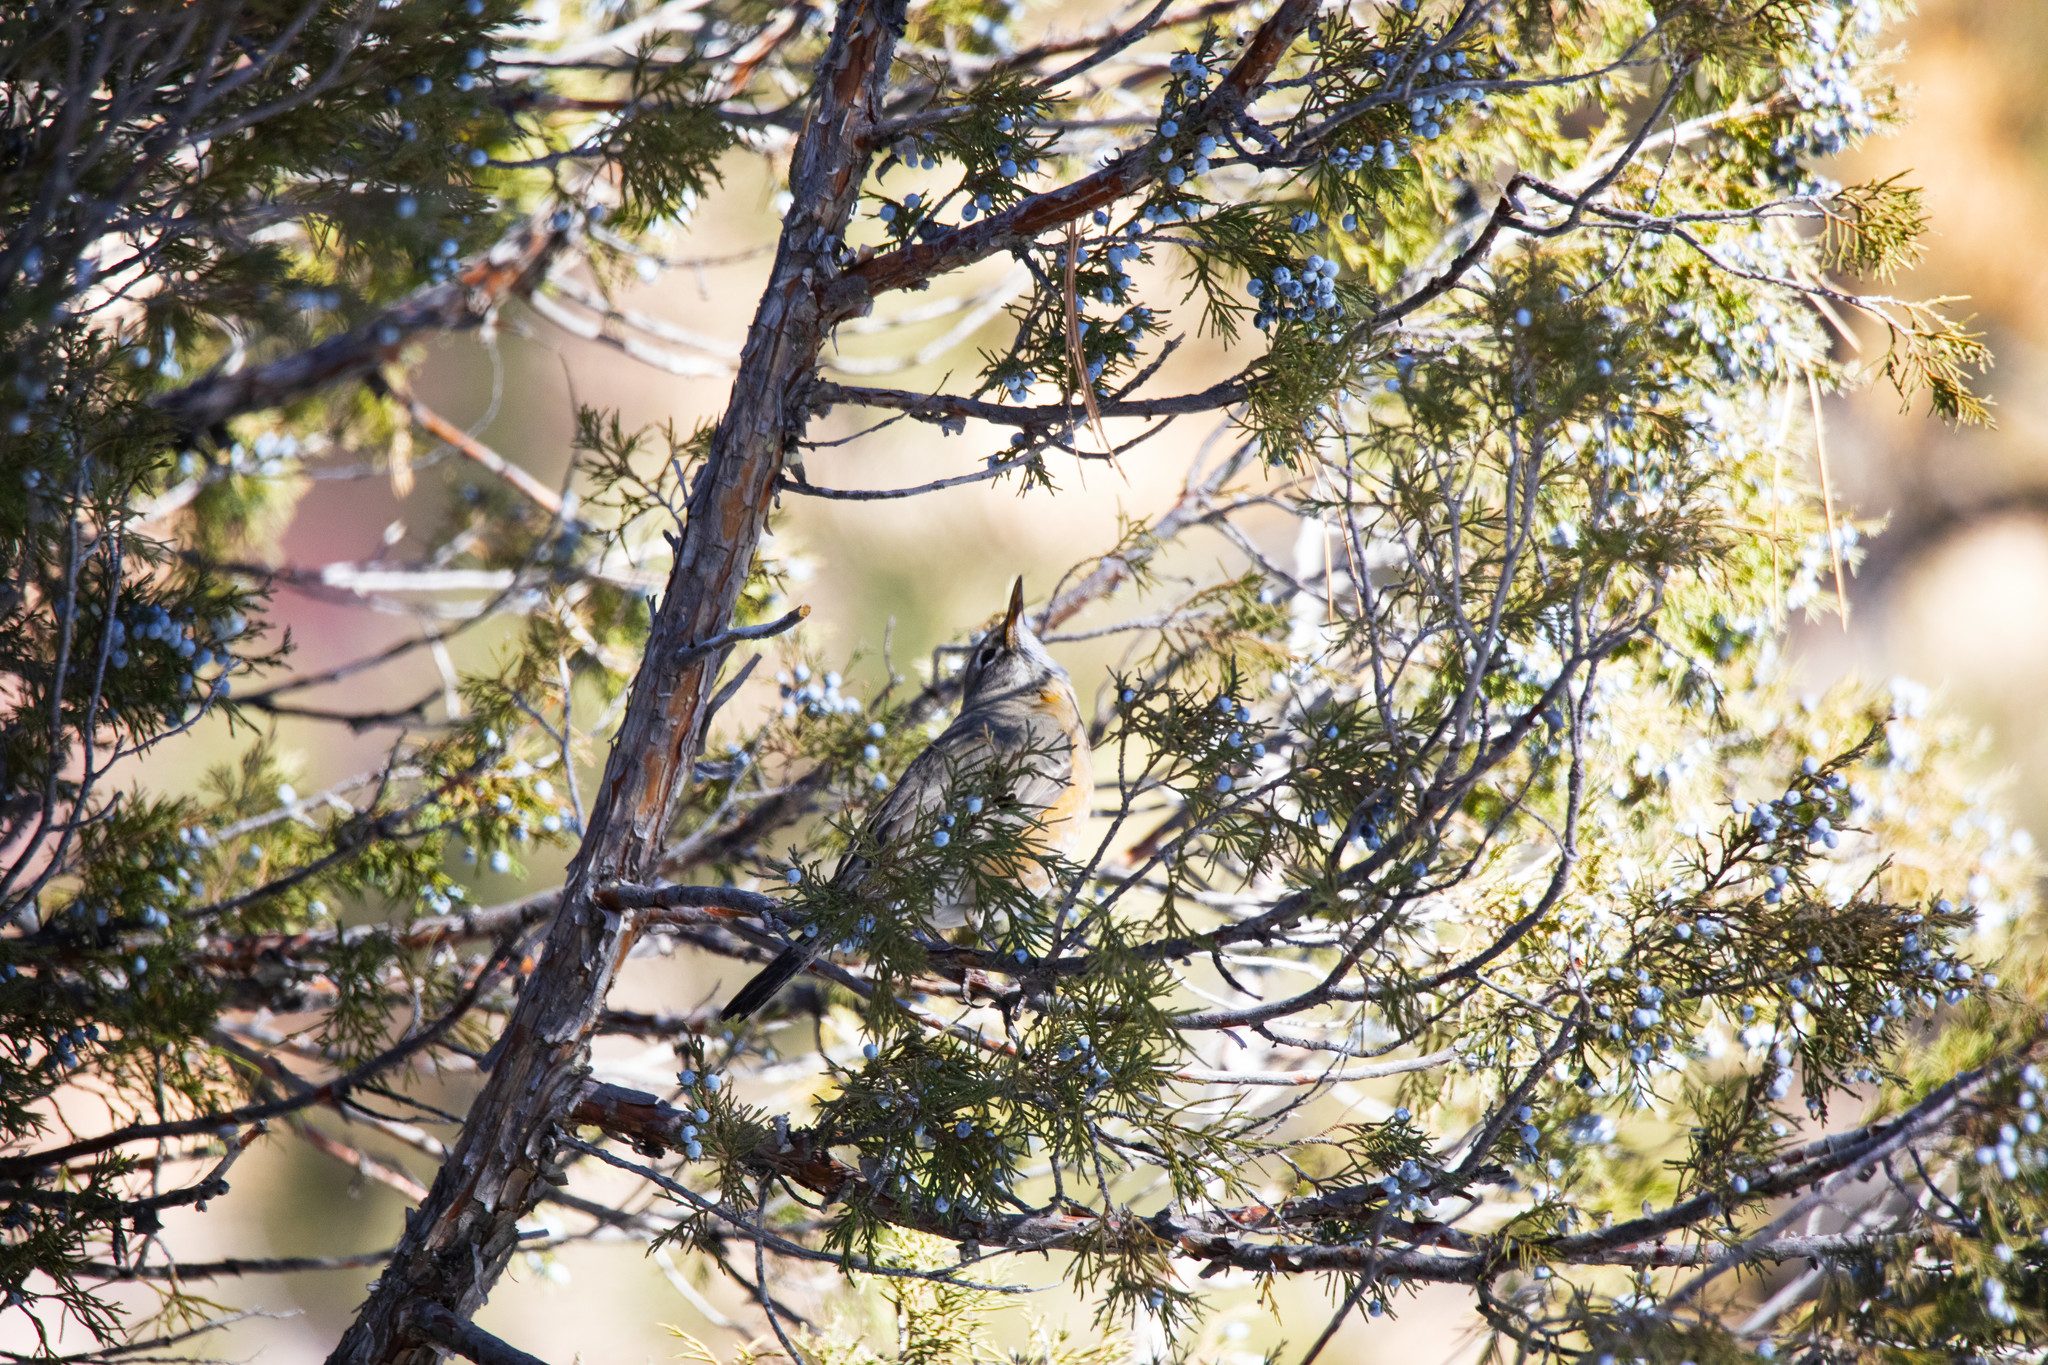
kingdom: Animalia
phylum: Chordata
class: Aves
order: Passeriformes
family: Turdidae
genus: Turdus
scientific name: Turdus migratorius
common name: American robin
